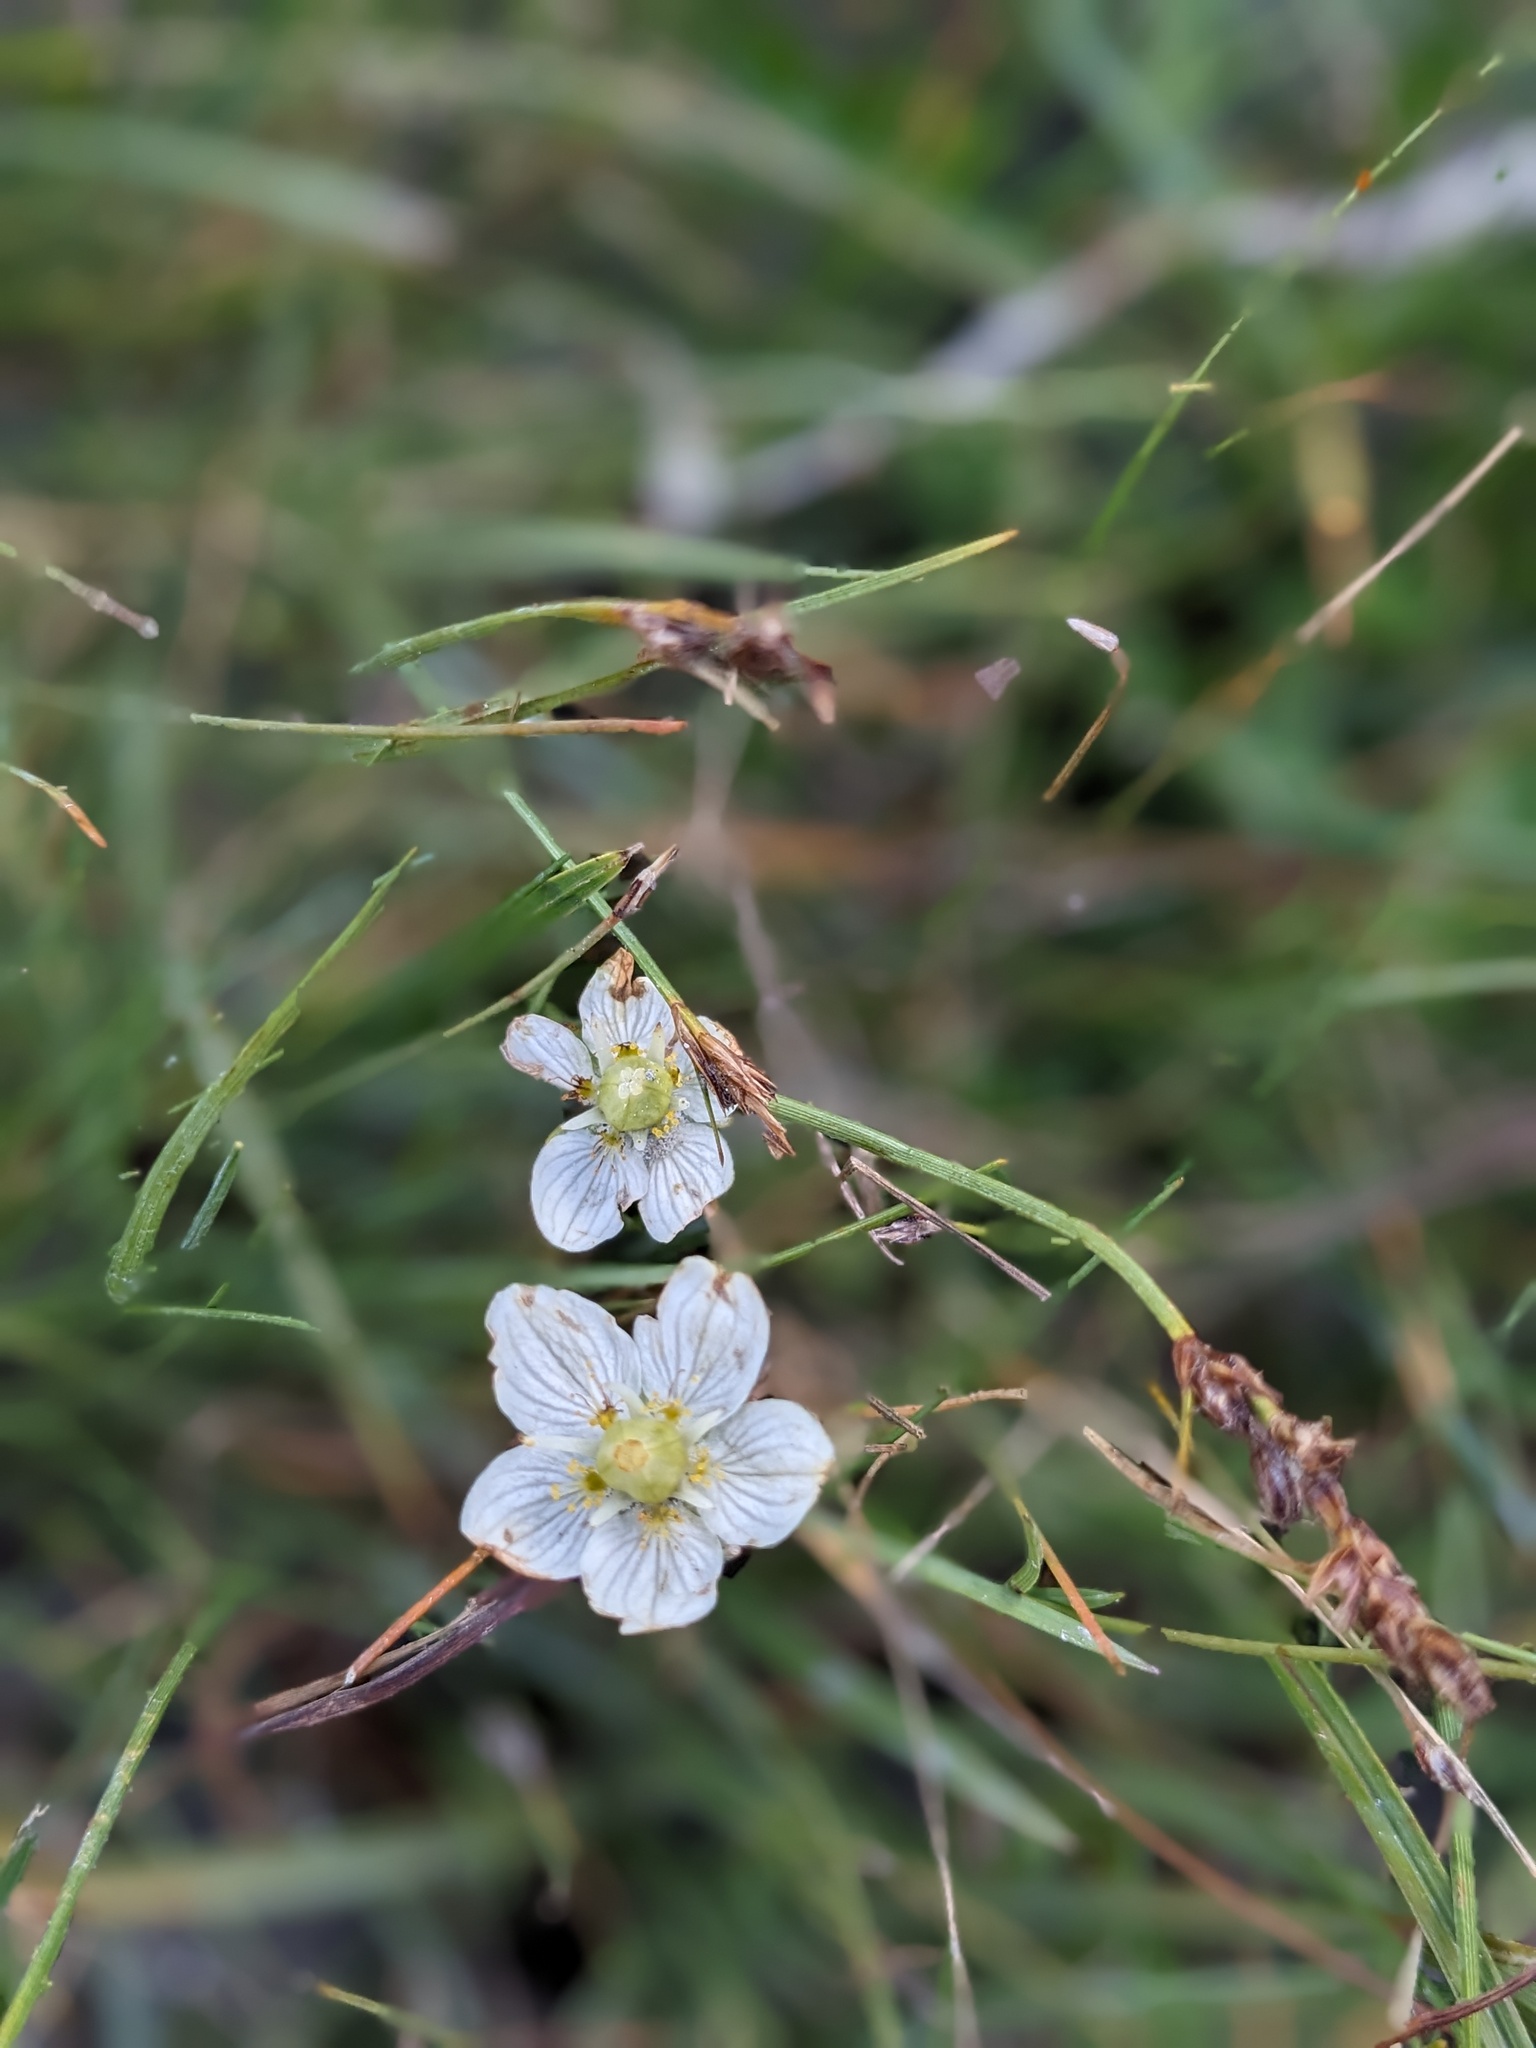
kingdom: Plantae
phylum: Tracheophyta
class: Magnoliopsida
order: Celastrales
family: Parnassiaceae
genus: Parnassia
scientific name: Parnassia palustris
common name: Grass-of-parnassus
